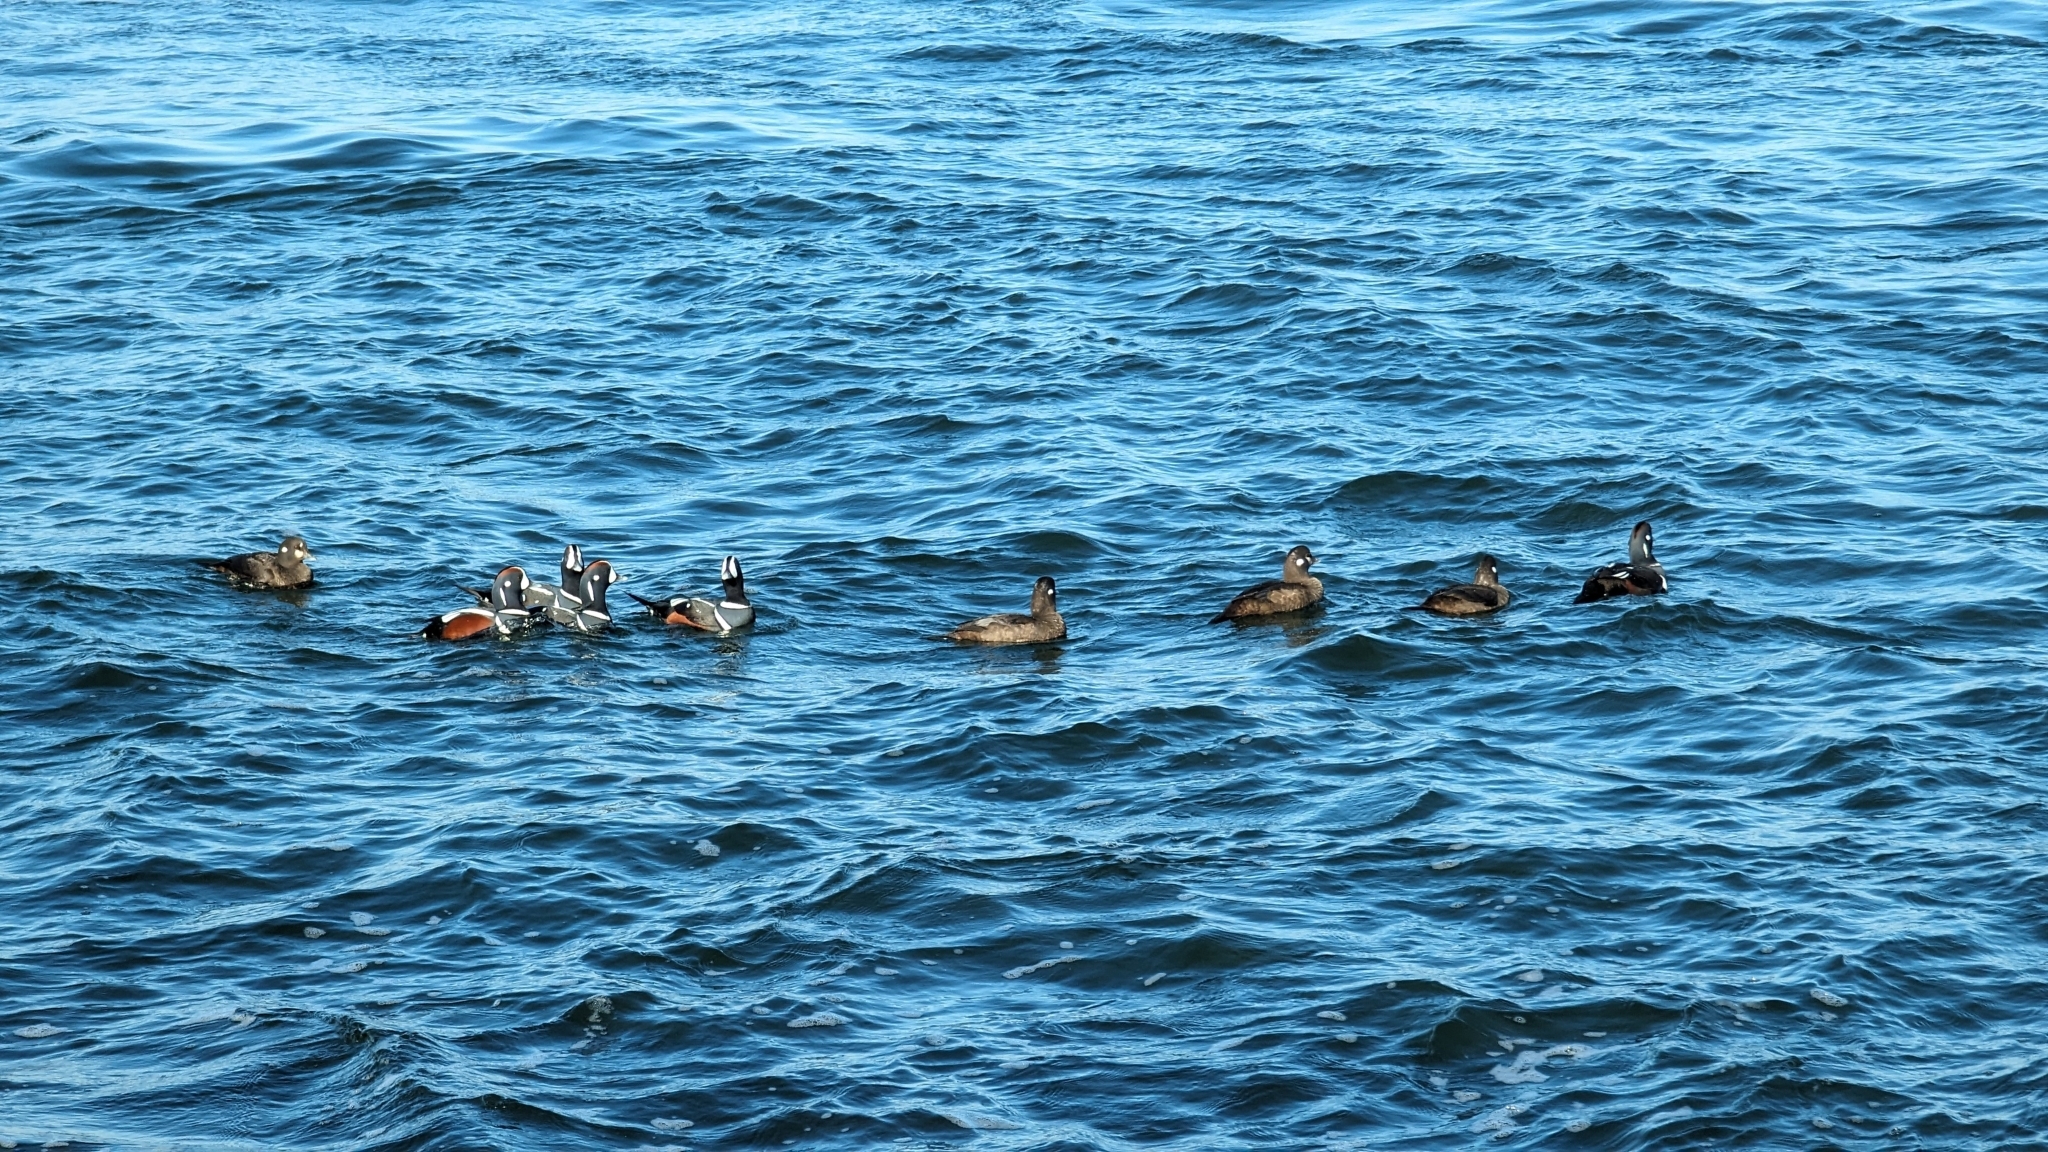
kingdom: Animalia
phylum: Chordata
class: Aves
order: Anseriformes
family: Anatidae
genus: Histrionicus
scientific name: Histrionicus histrionicus
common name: Harlequin duck
